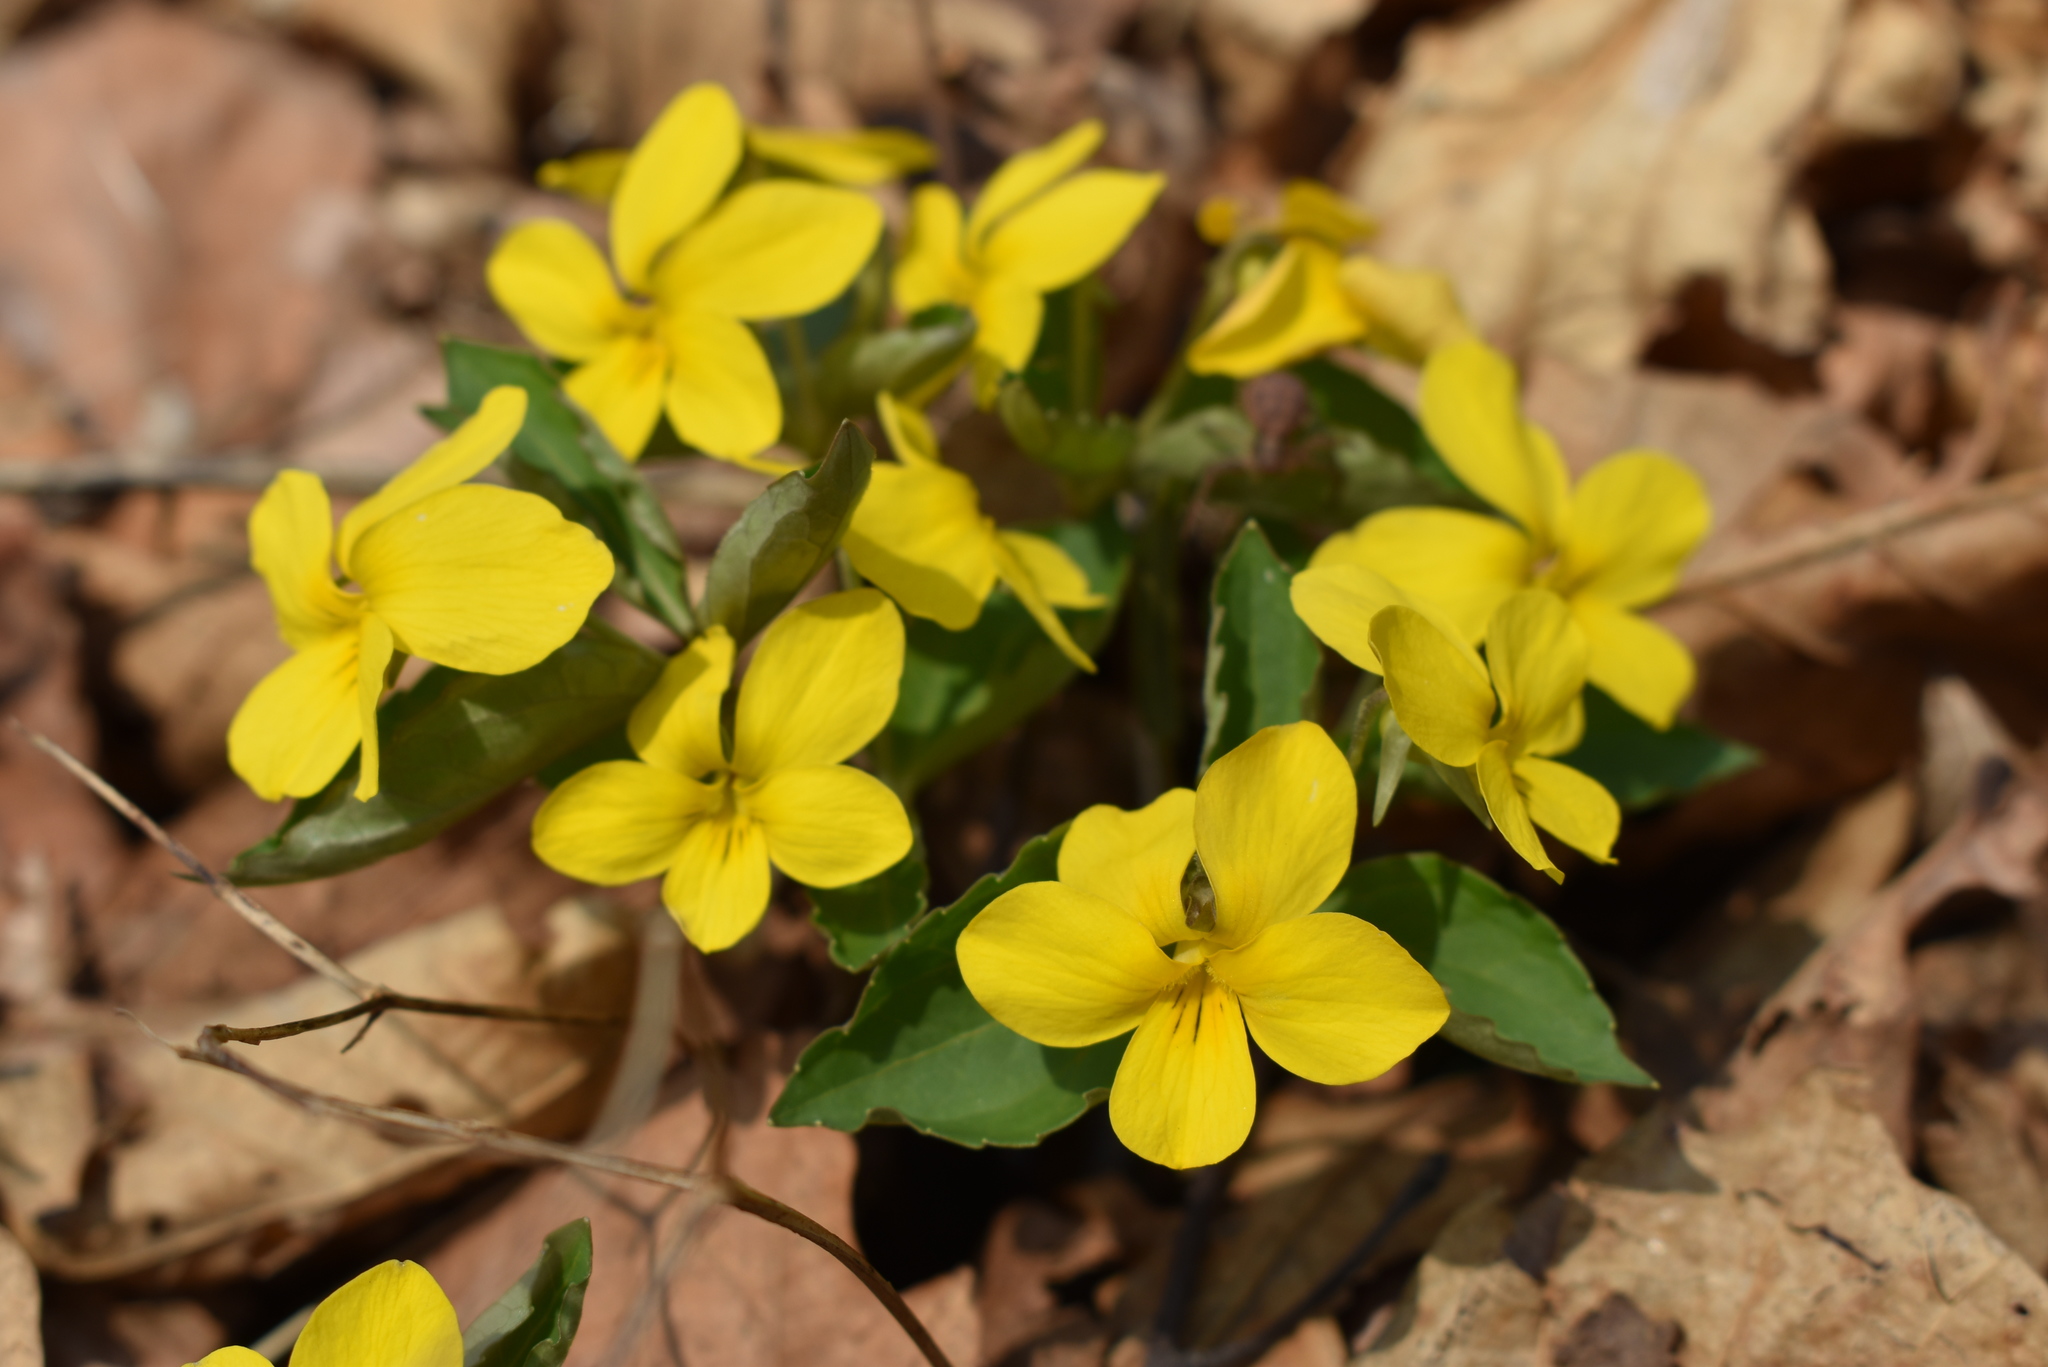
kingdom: Plantae
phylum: Tracheophyta
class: Magnoliopsida
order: Malpighiales
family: Violaceae
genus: Viola
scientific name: Viola orientalis
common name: Golden violet
